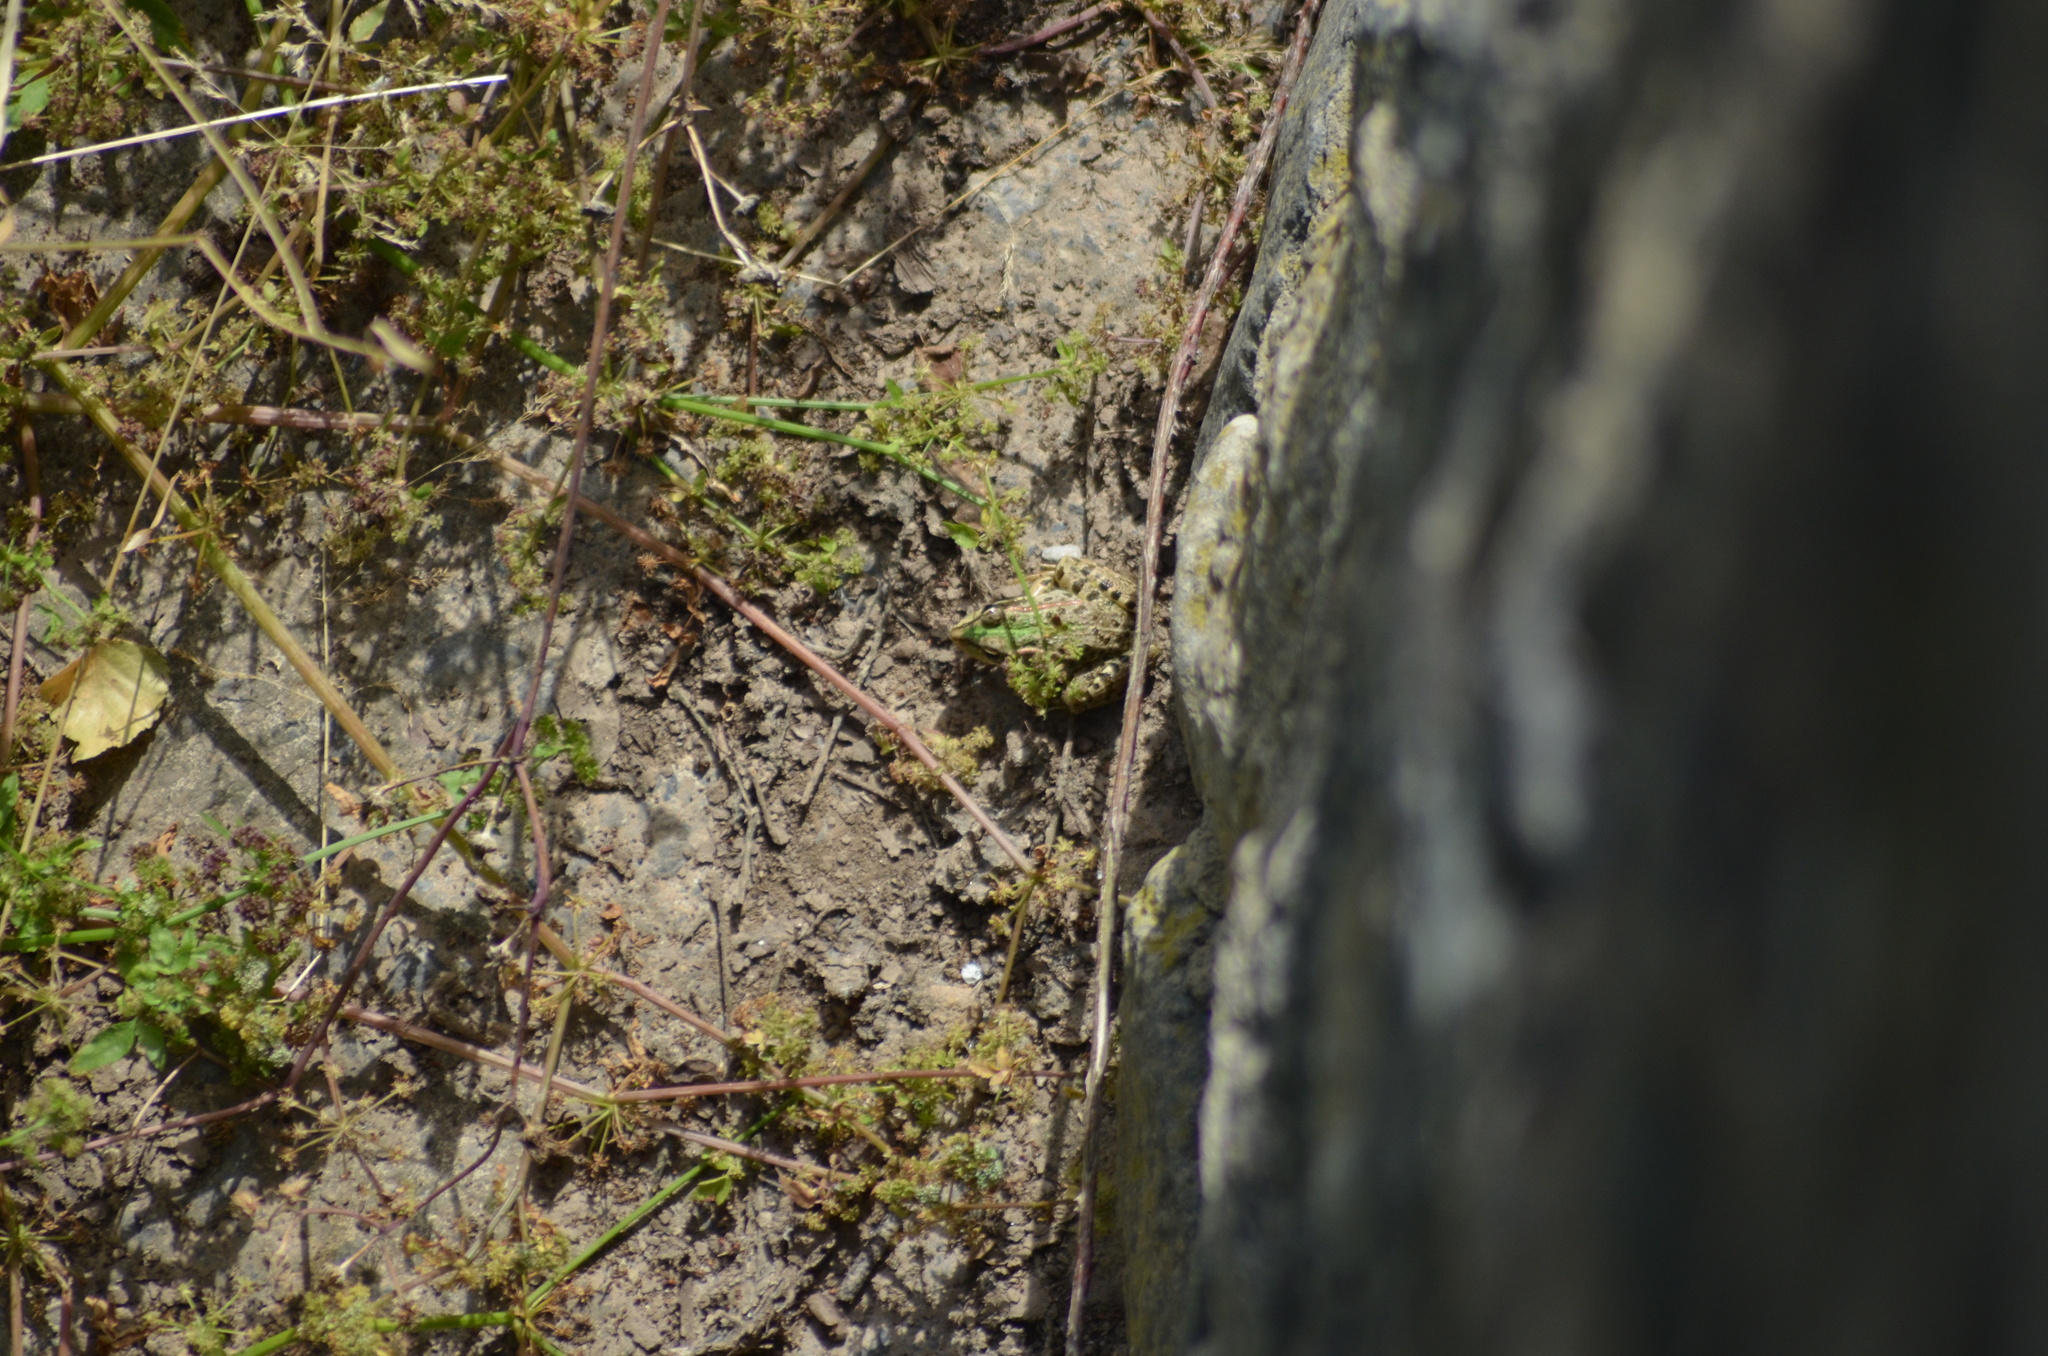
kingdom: Animalia
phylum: Chordata
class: Amphibia
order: Anura
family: Ranidae
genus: Pelophylax
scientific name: Pelophylax perezi
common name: Perez's frog
